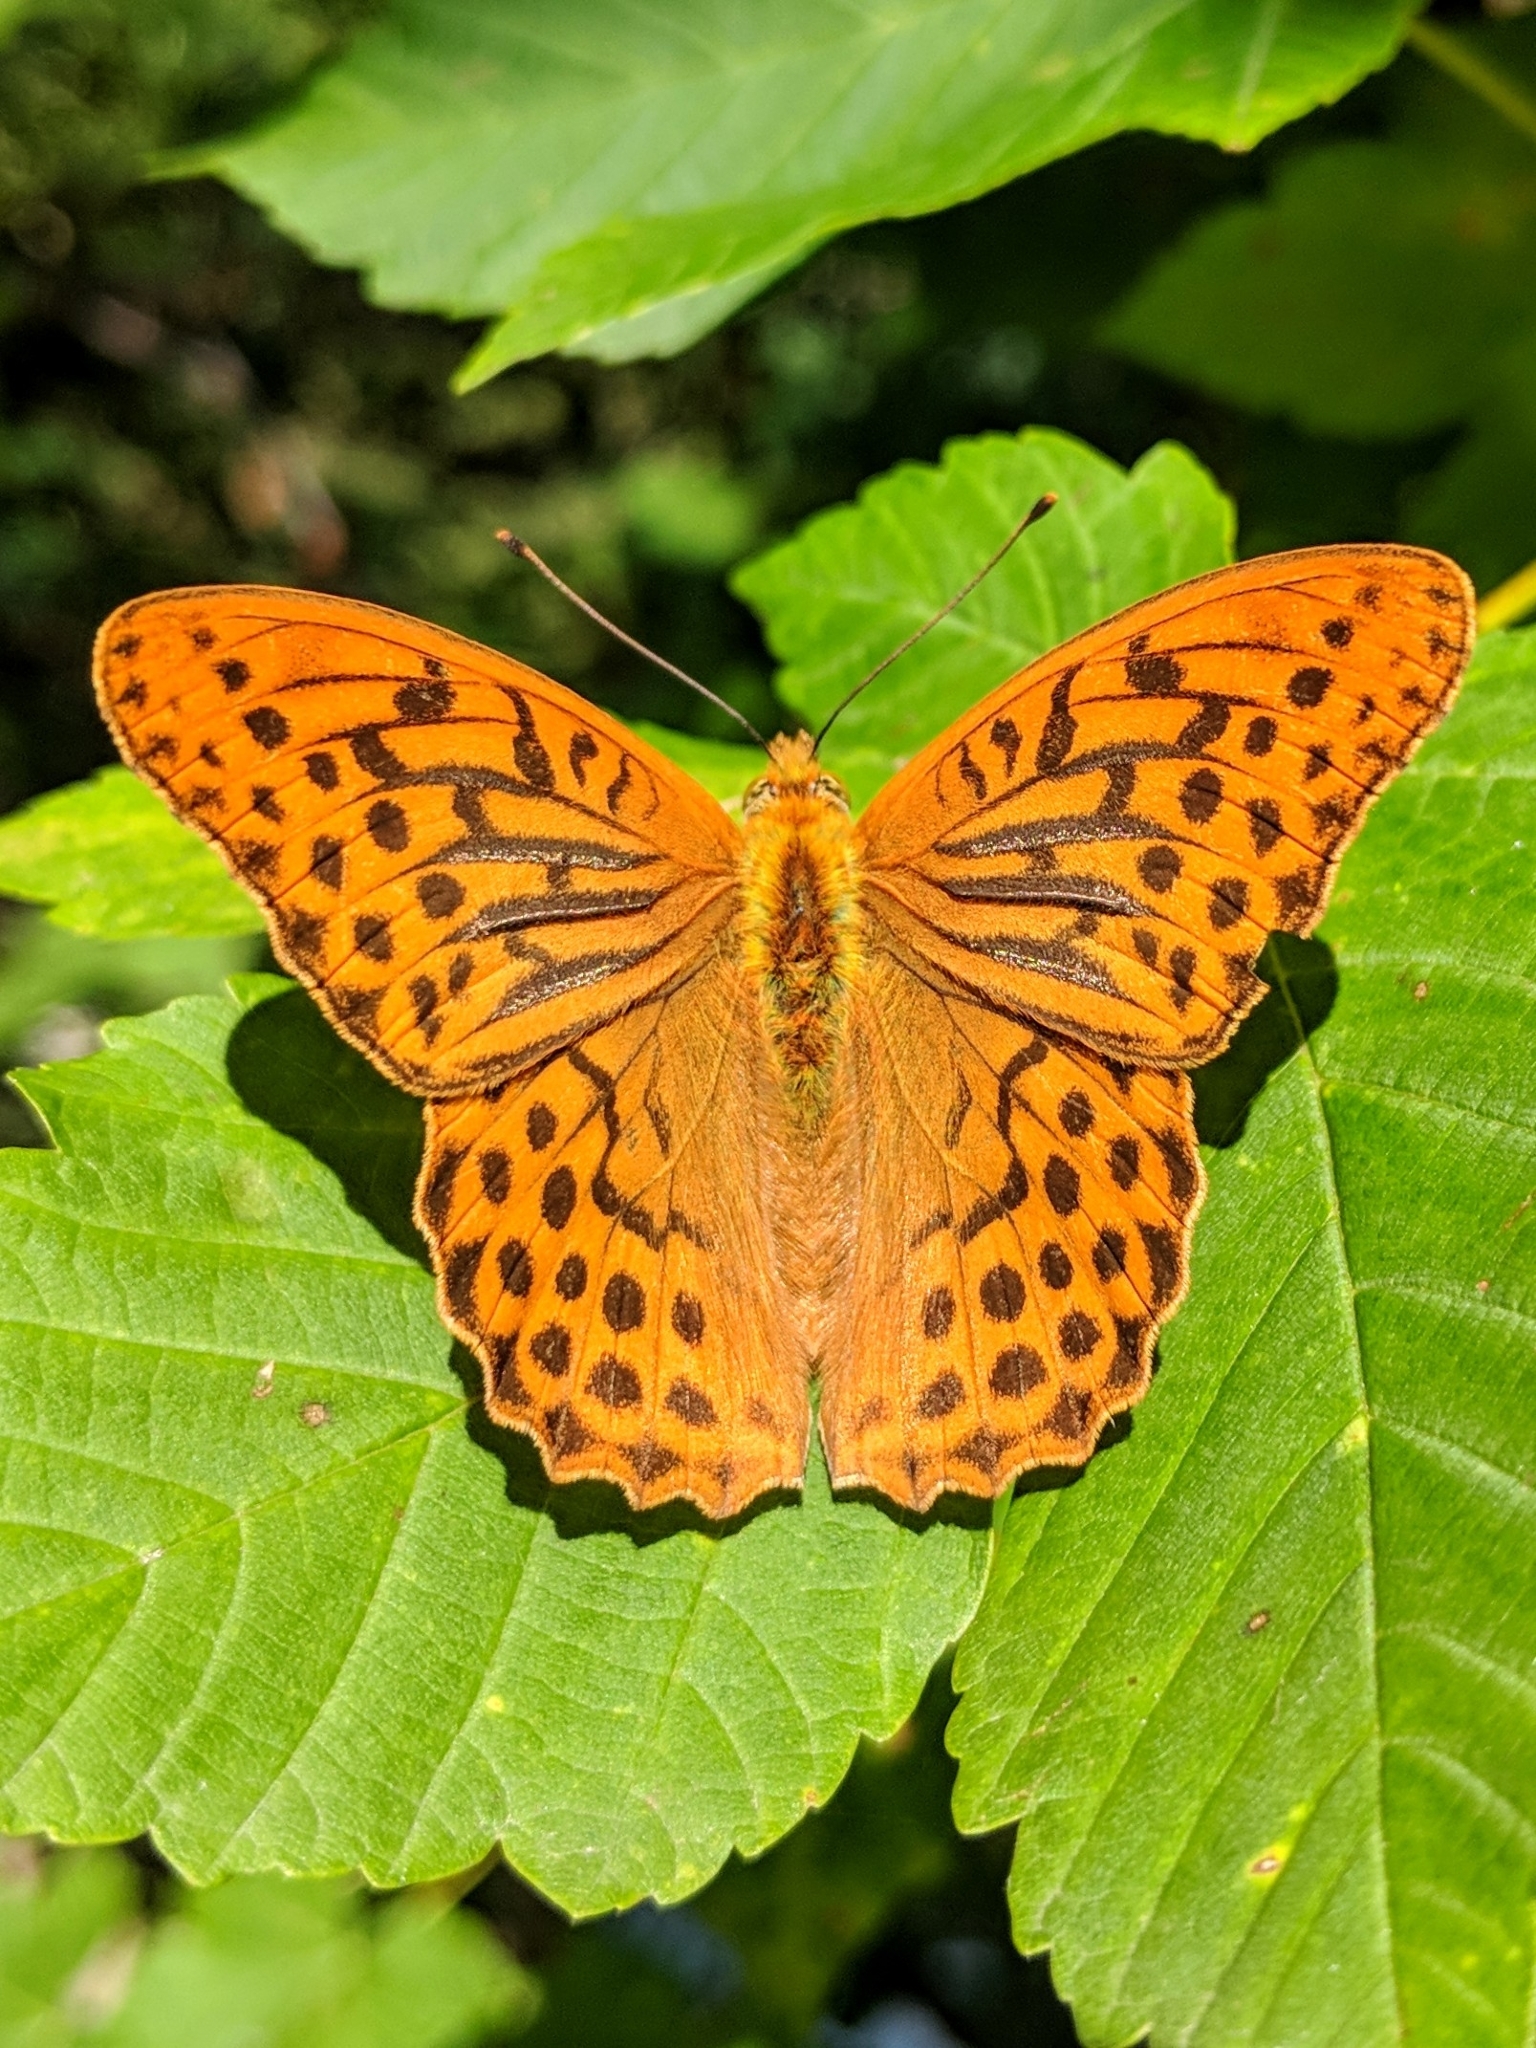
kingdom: Animalia
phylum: Arthropoda
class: Insecta
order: Lepidoptera
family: Nymphalidae
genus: Argynnis
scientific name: Argynnis paphia
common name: Silver-washed fritillary
